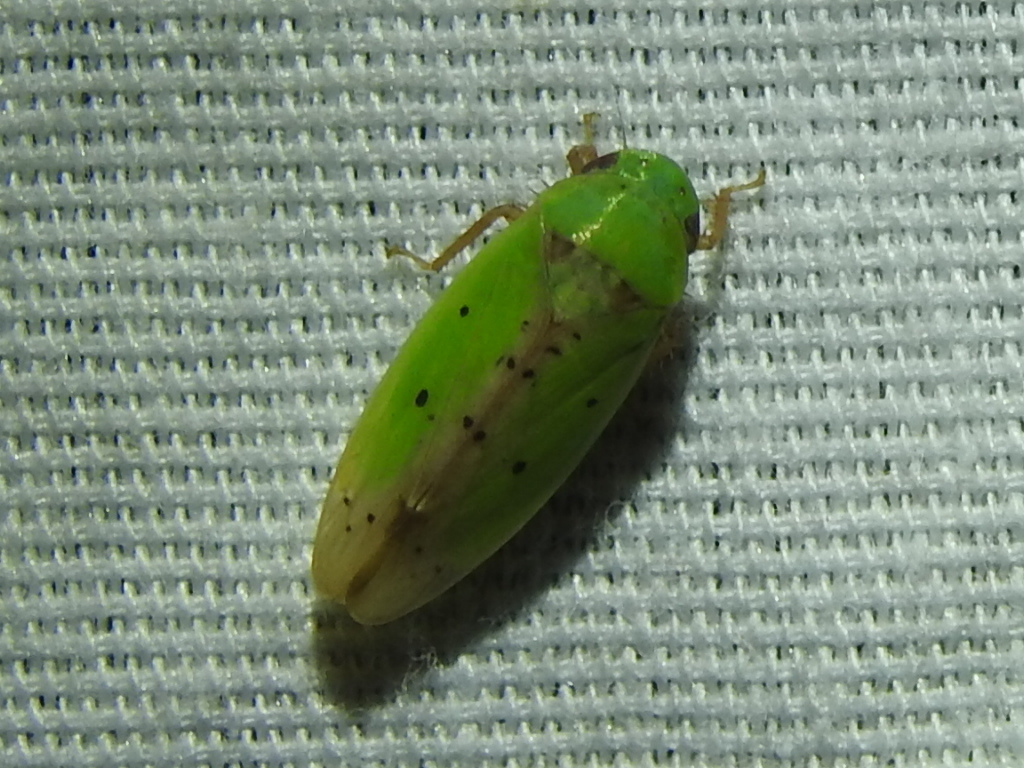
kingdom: Animalia
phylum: Arthropoda
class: Insecta
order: Hemiptera
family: Cicadellidae
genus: Ponana
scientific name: Ponana
